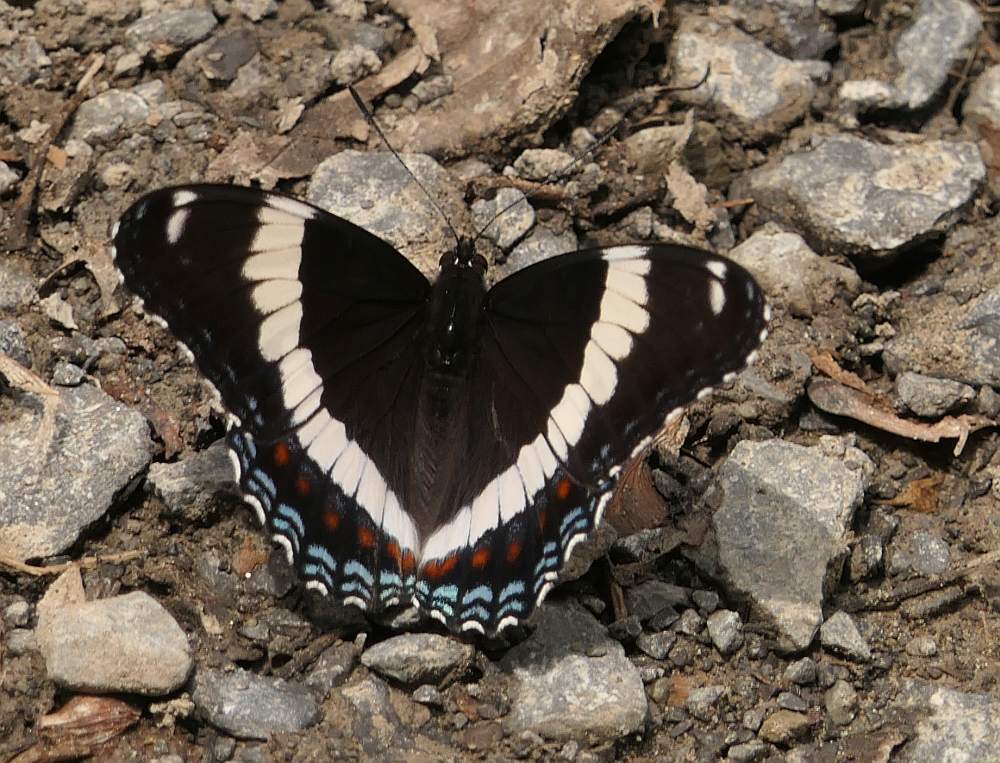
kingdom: Animalia
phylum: Arthropoda
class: Insecta
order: Lepidoptera
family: Nymphalidae
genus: Limenitis
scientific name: Limenitis arthemis
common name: Red-spotted admiral
